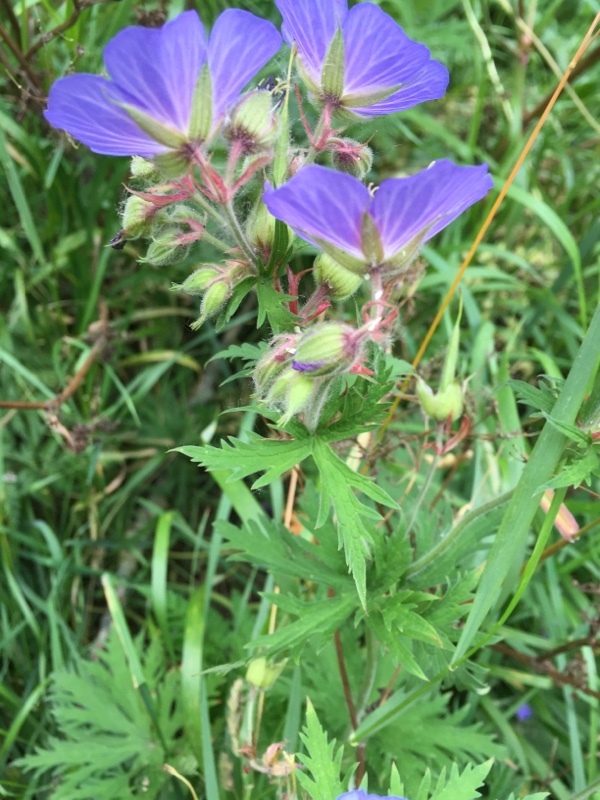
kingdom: Plantae
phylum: Tracheophyta
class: Magnoliopsida
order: Geraniales
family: Geraniaceae
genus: Geranium
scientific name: Geranium pratense
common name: Meadow crane's-bill
